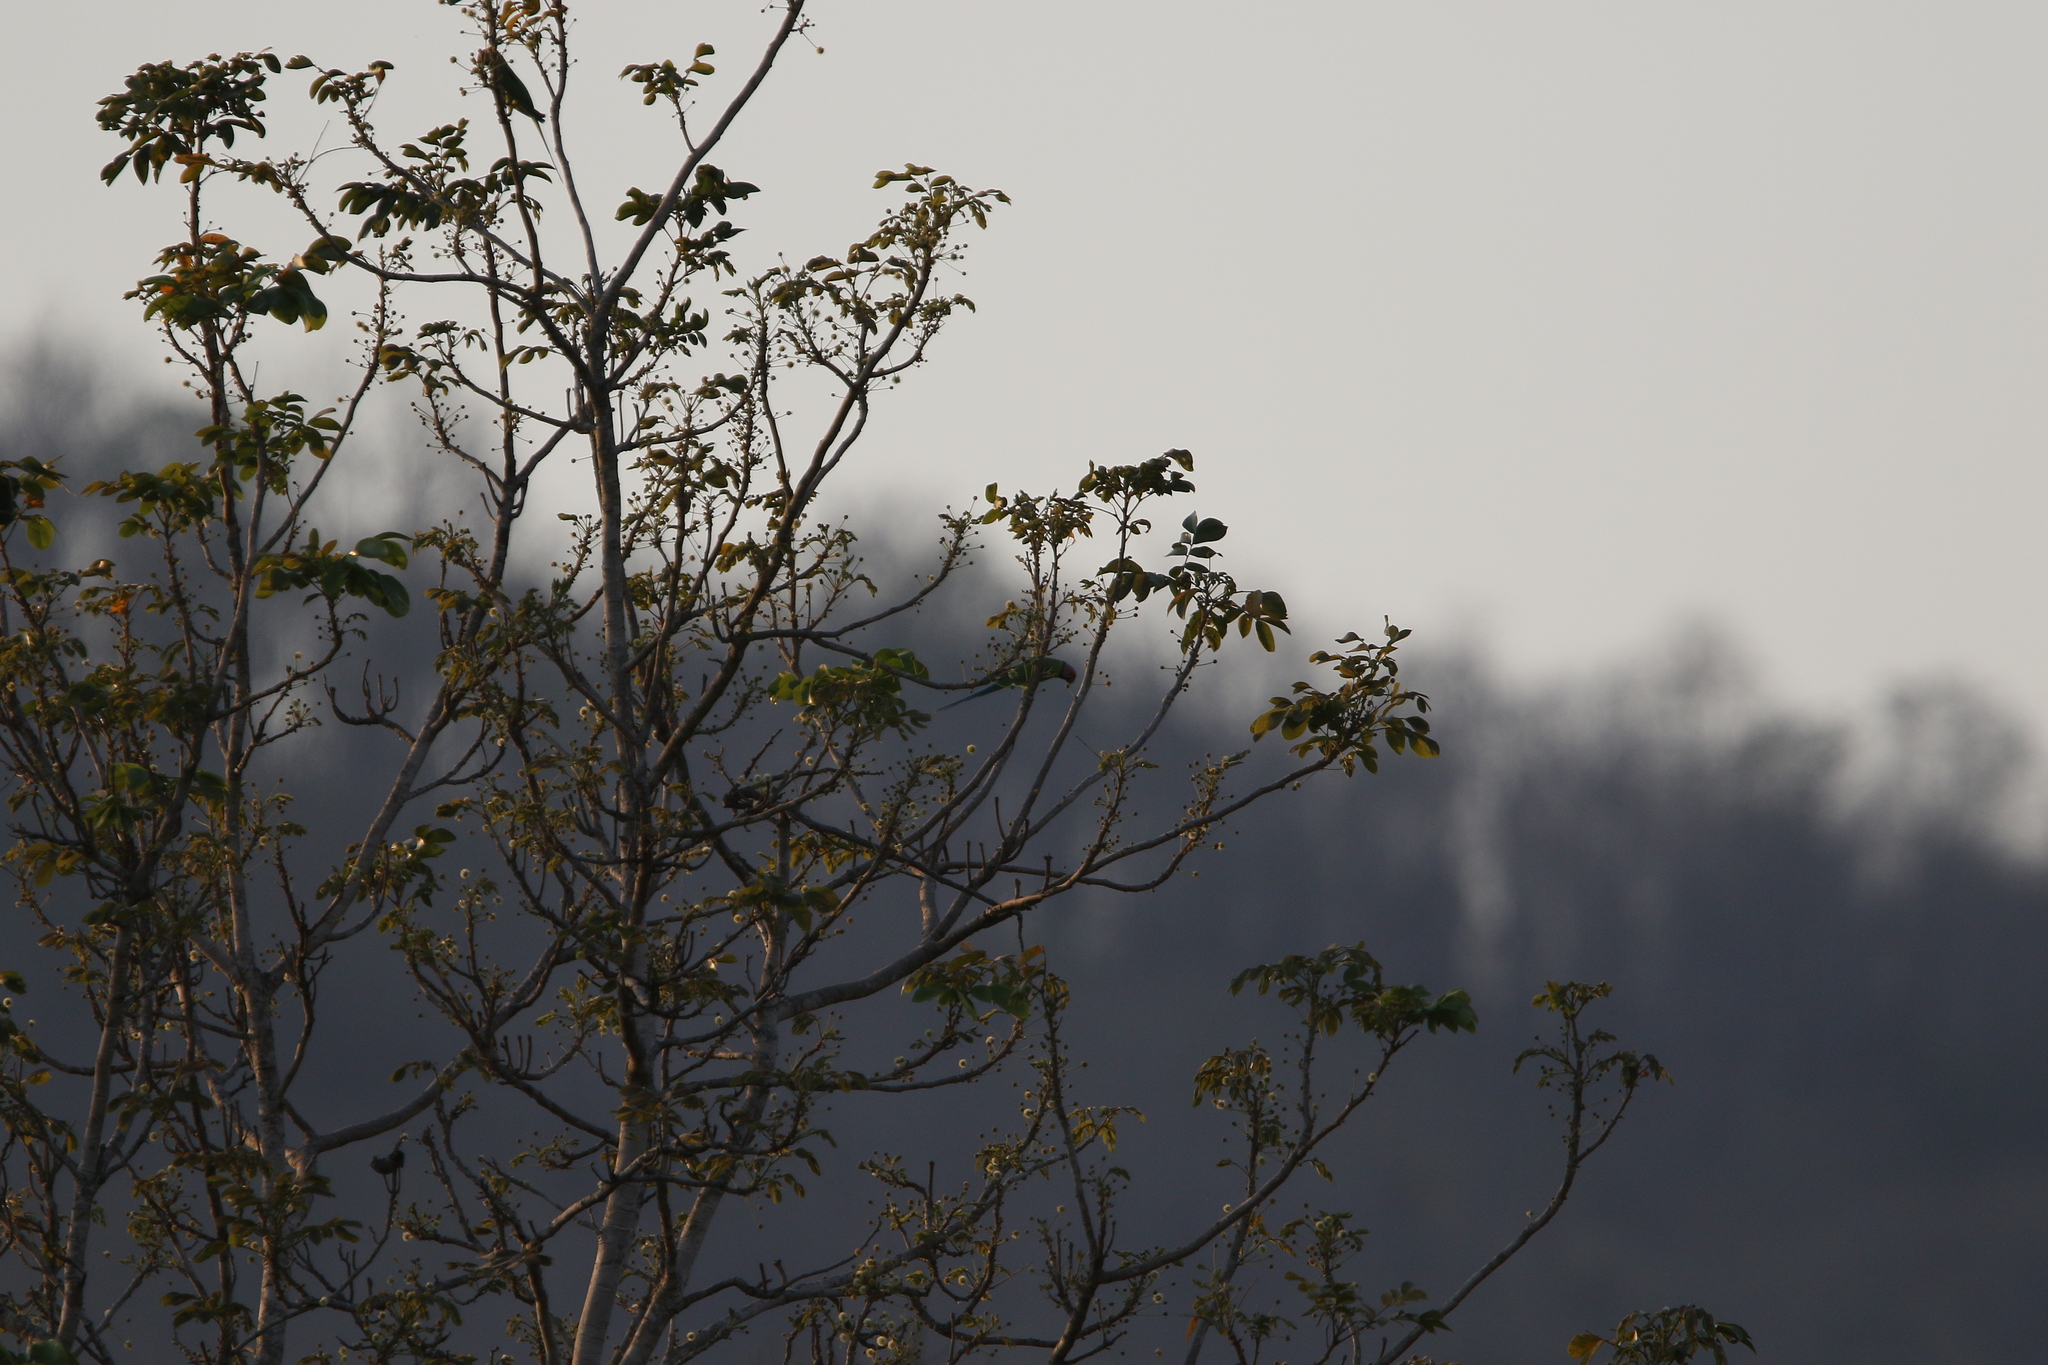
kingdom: Animalia
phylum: Chordata
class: Aves
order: Psittaciformes
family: Psittacidae
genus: Psittacula
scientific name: Psittacula roseata
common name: Blossom-headed parakeet
